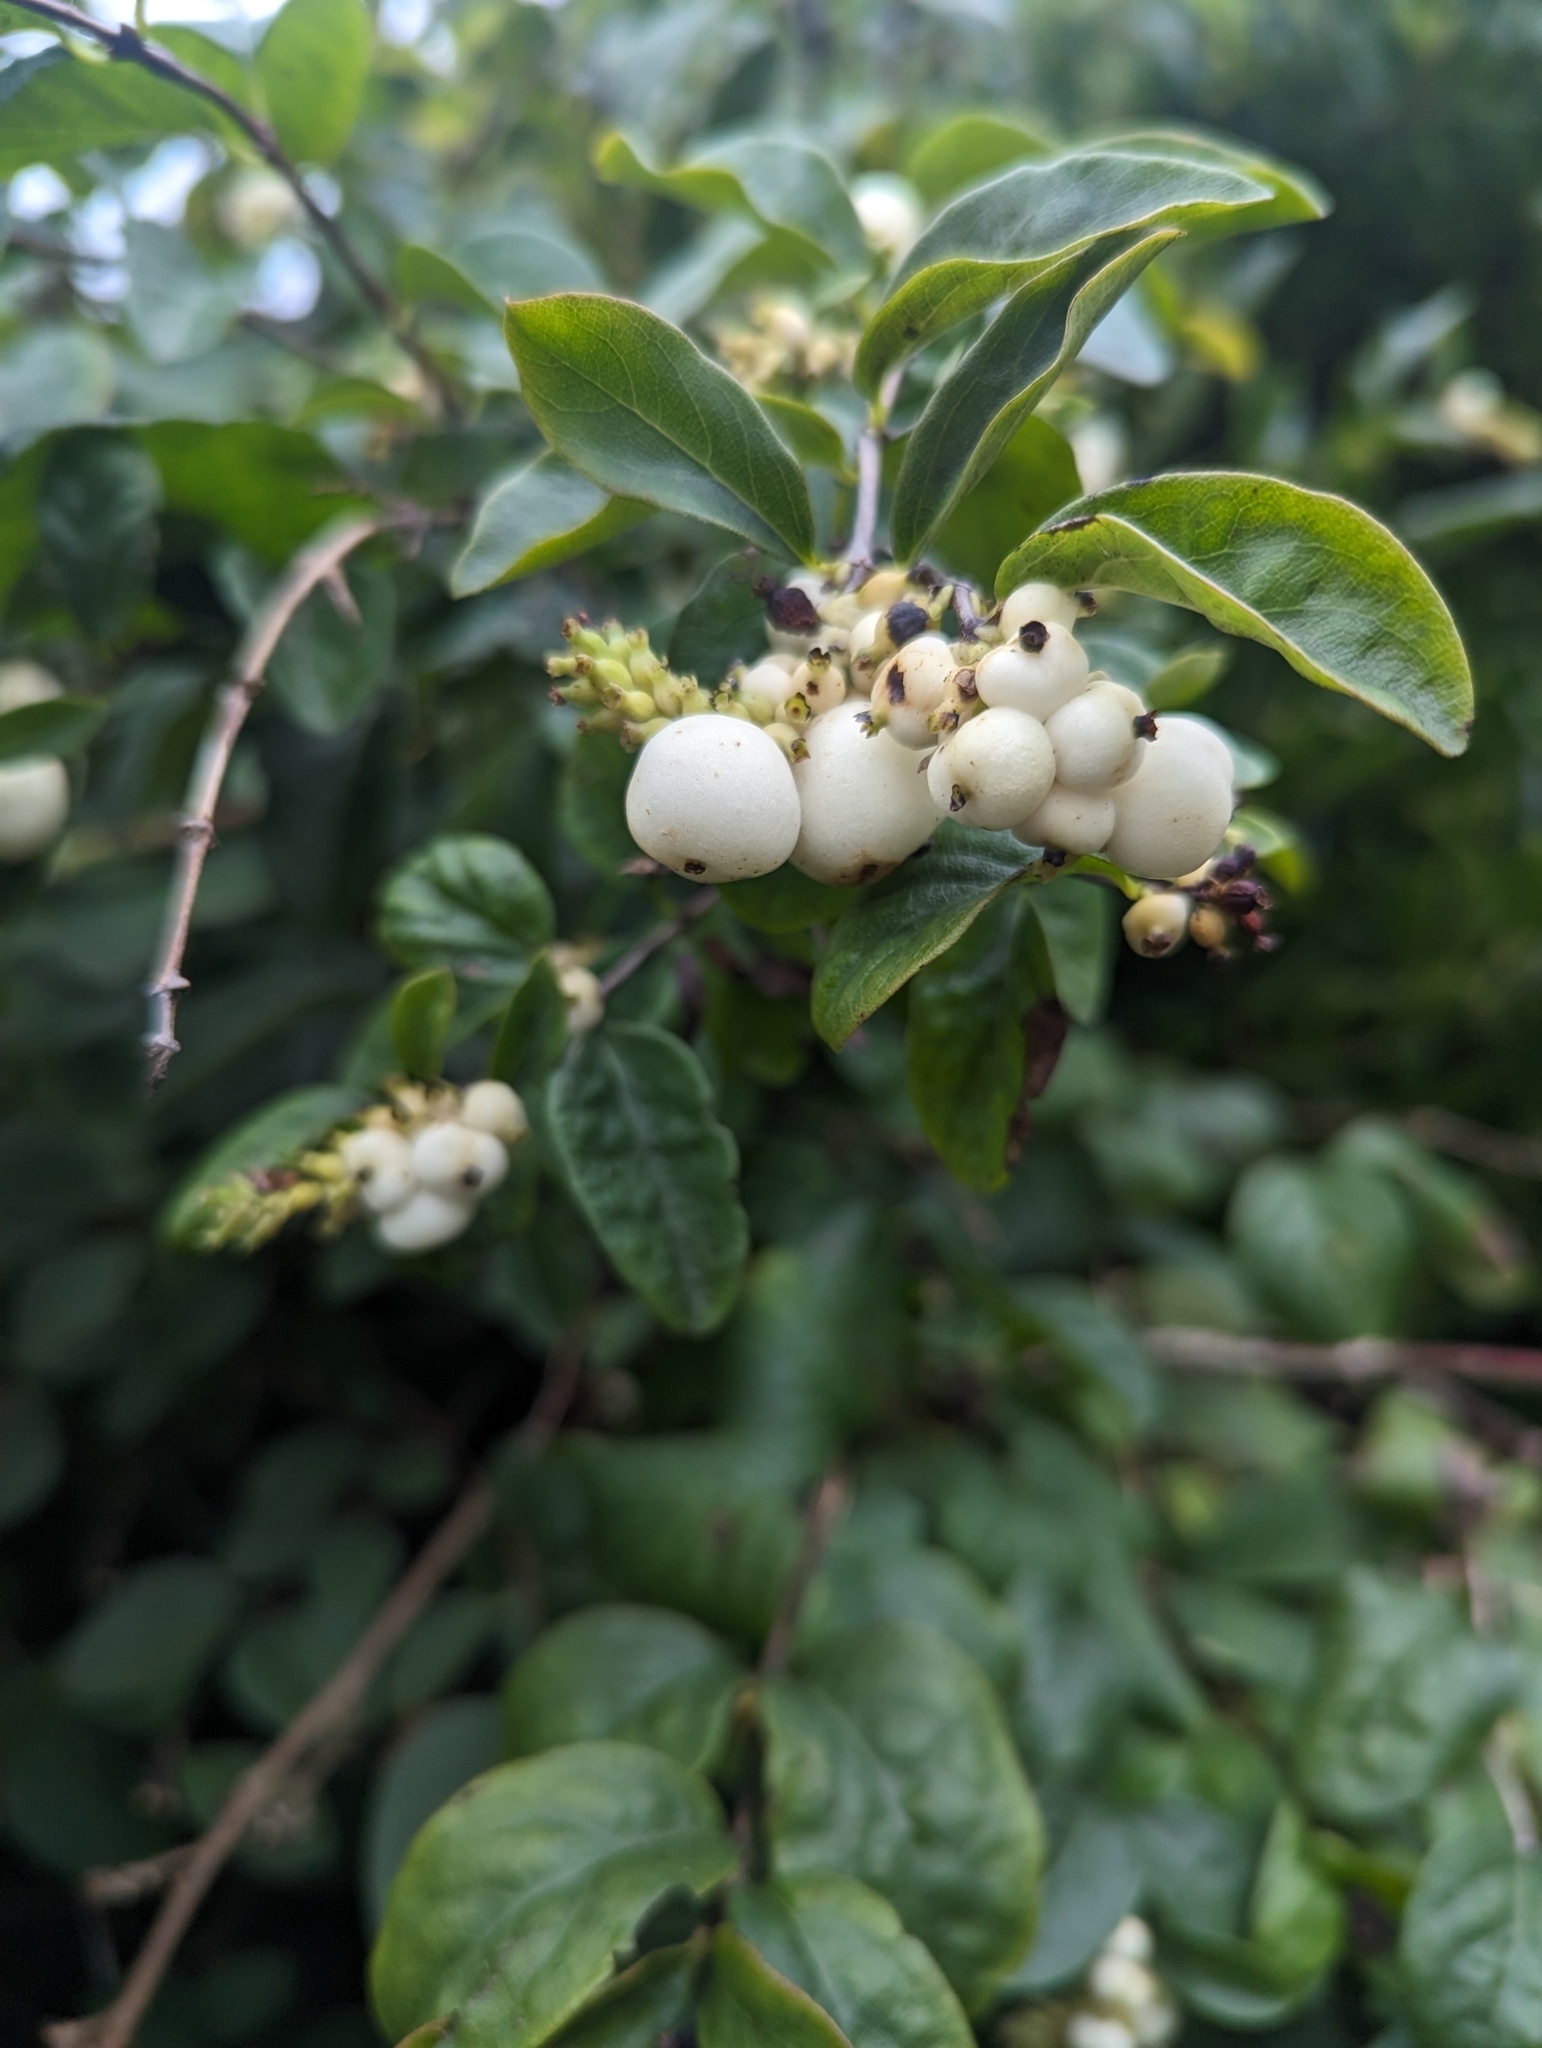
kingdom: Plantae
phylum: Tracheophyta
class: Magnoliopsida
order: Dipsacales
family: Caprifoliaceae
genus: Symphoricarpos
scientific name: Symphoricarpos albus
